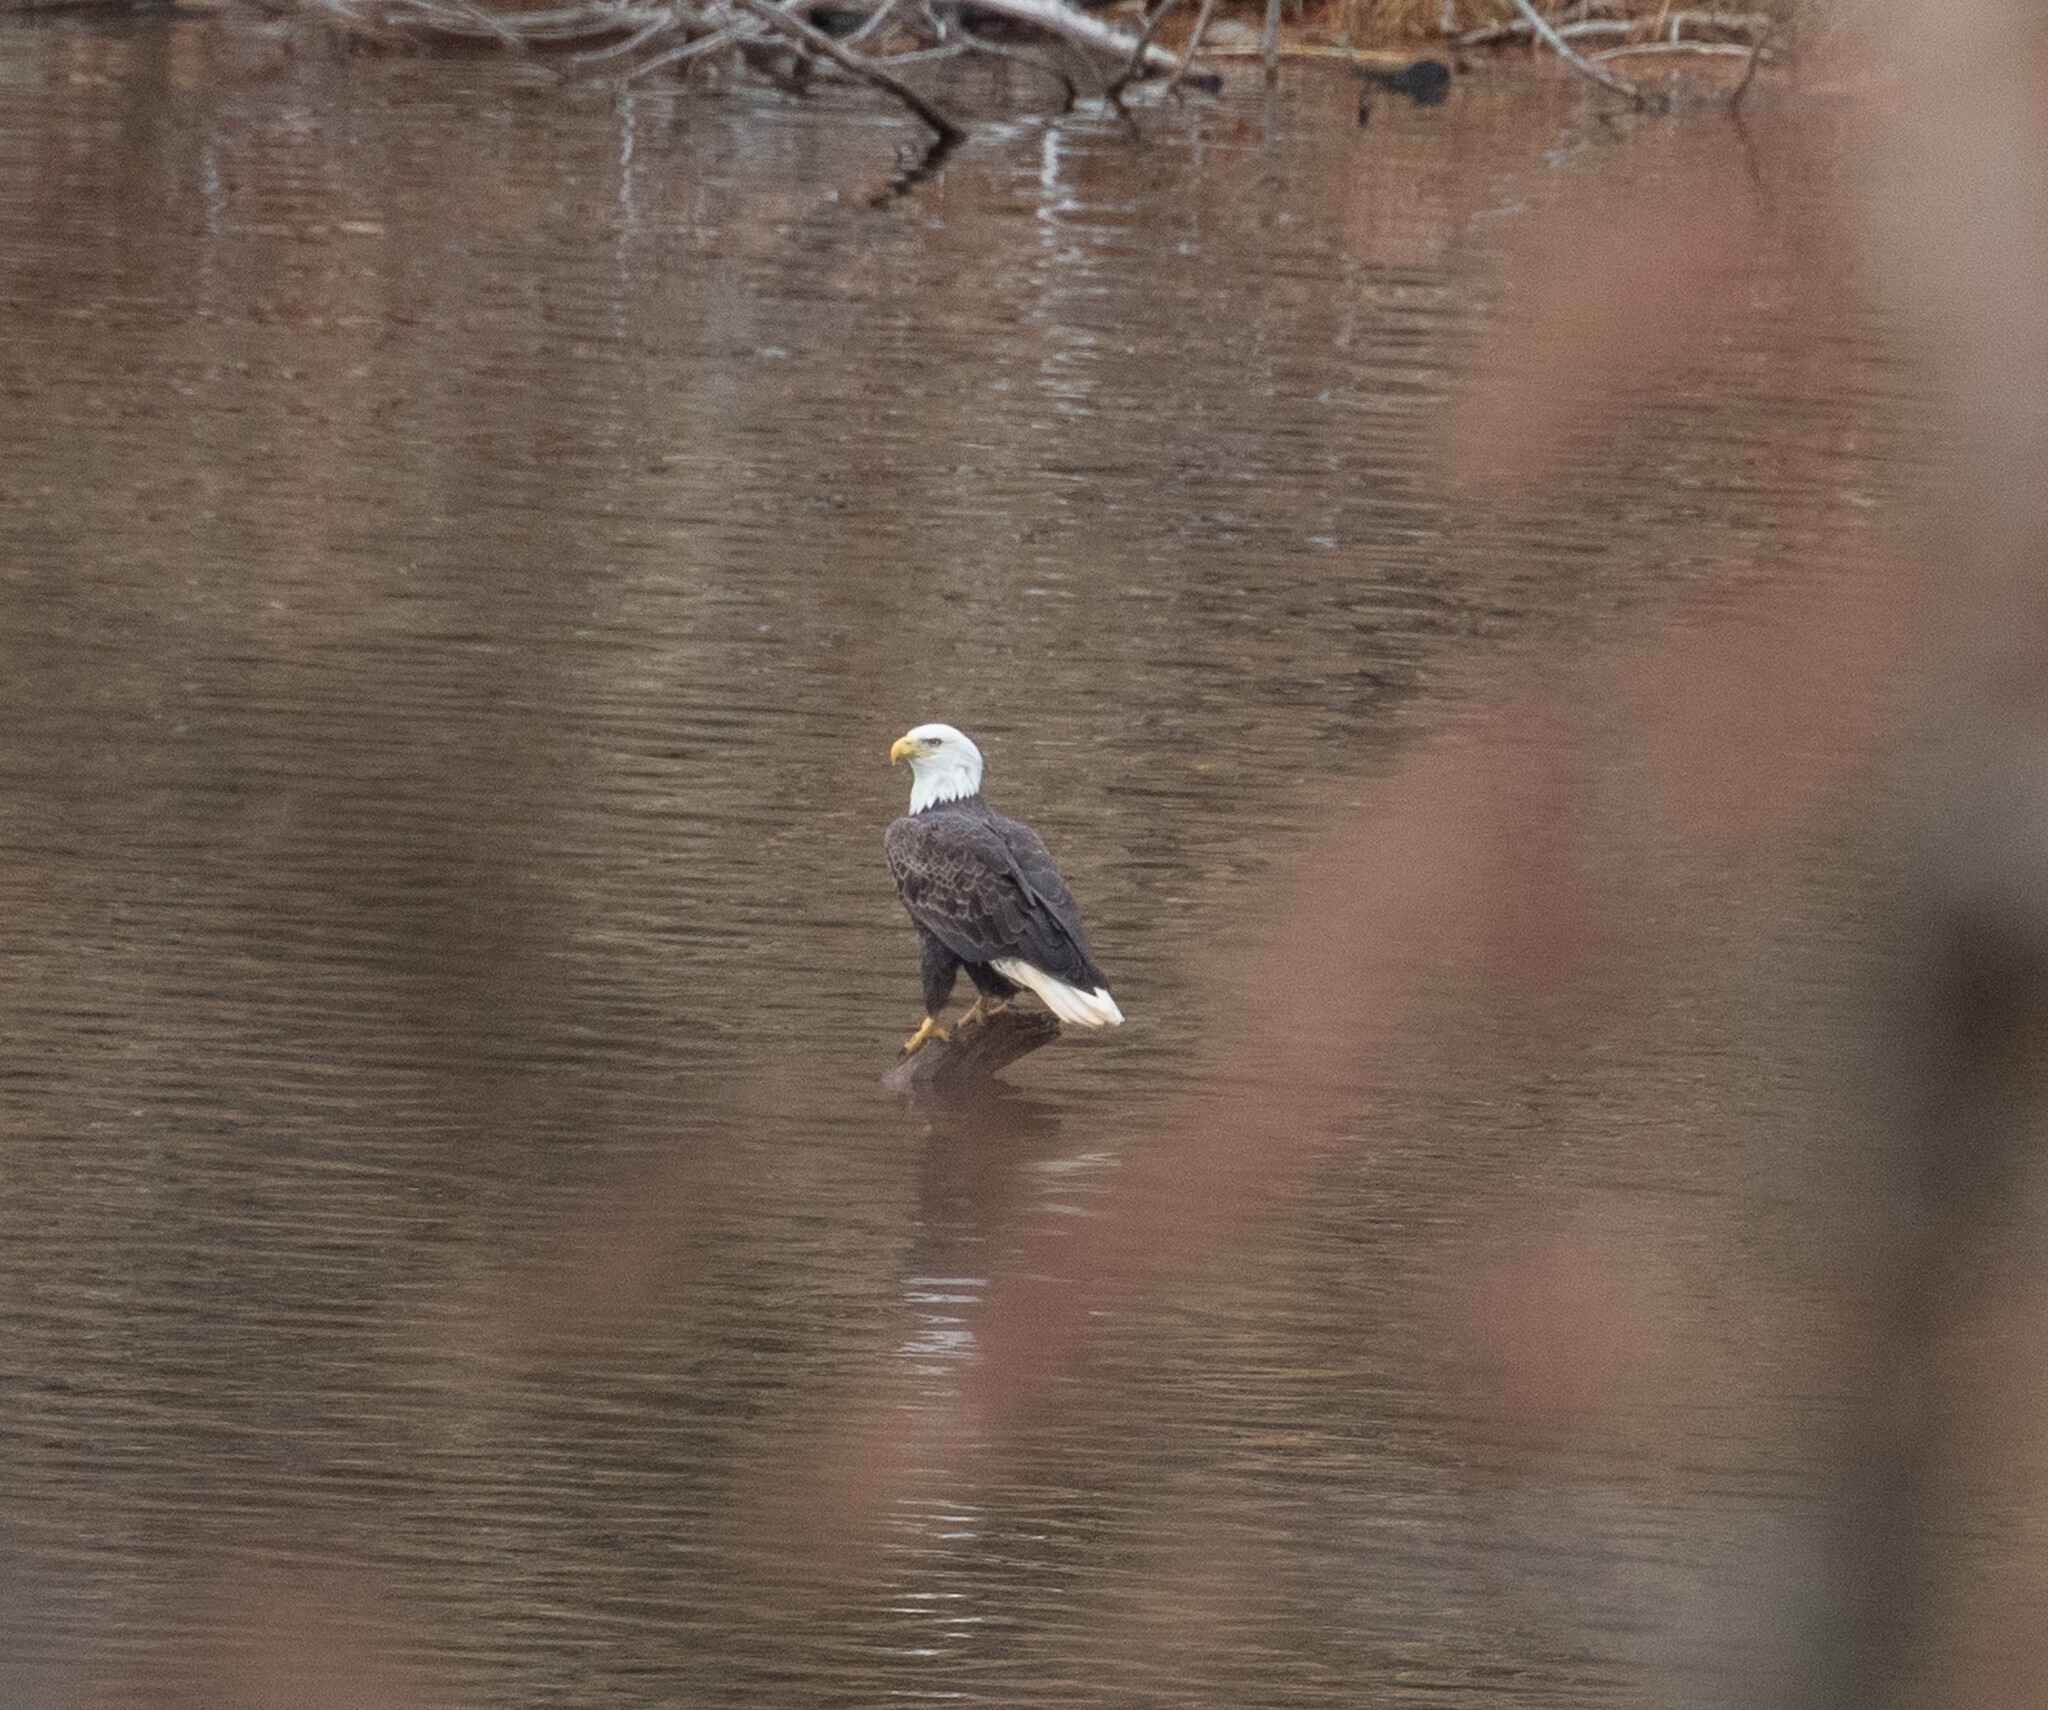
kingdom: Animalia
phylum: Chordata
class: Aves
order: Accipitriformes
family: Accipitridae
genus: Haliaeetus
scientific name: Haliaeetus leucocephalus
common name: Bald eagle
